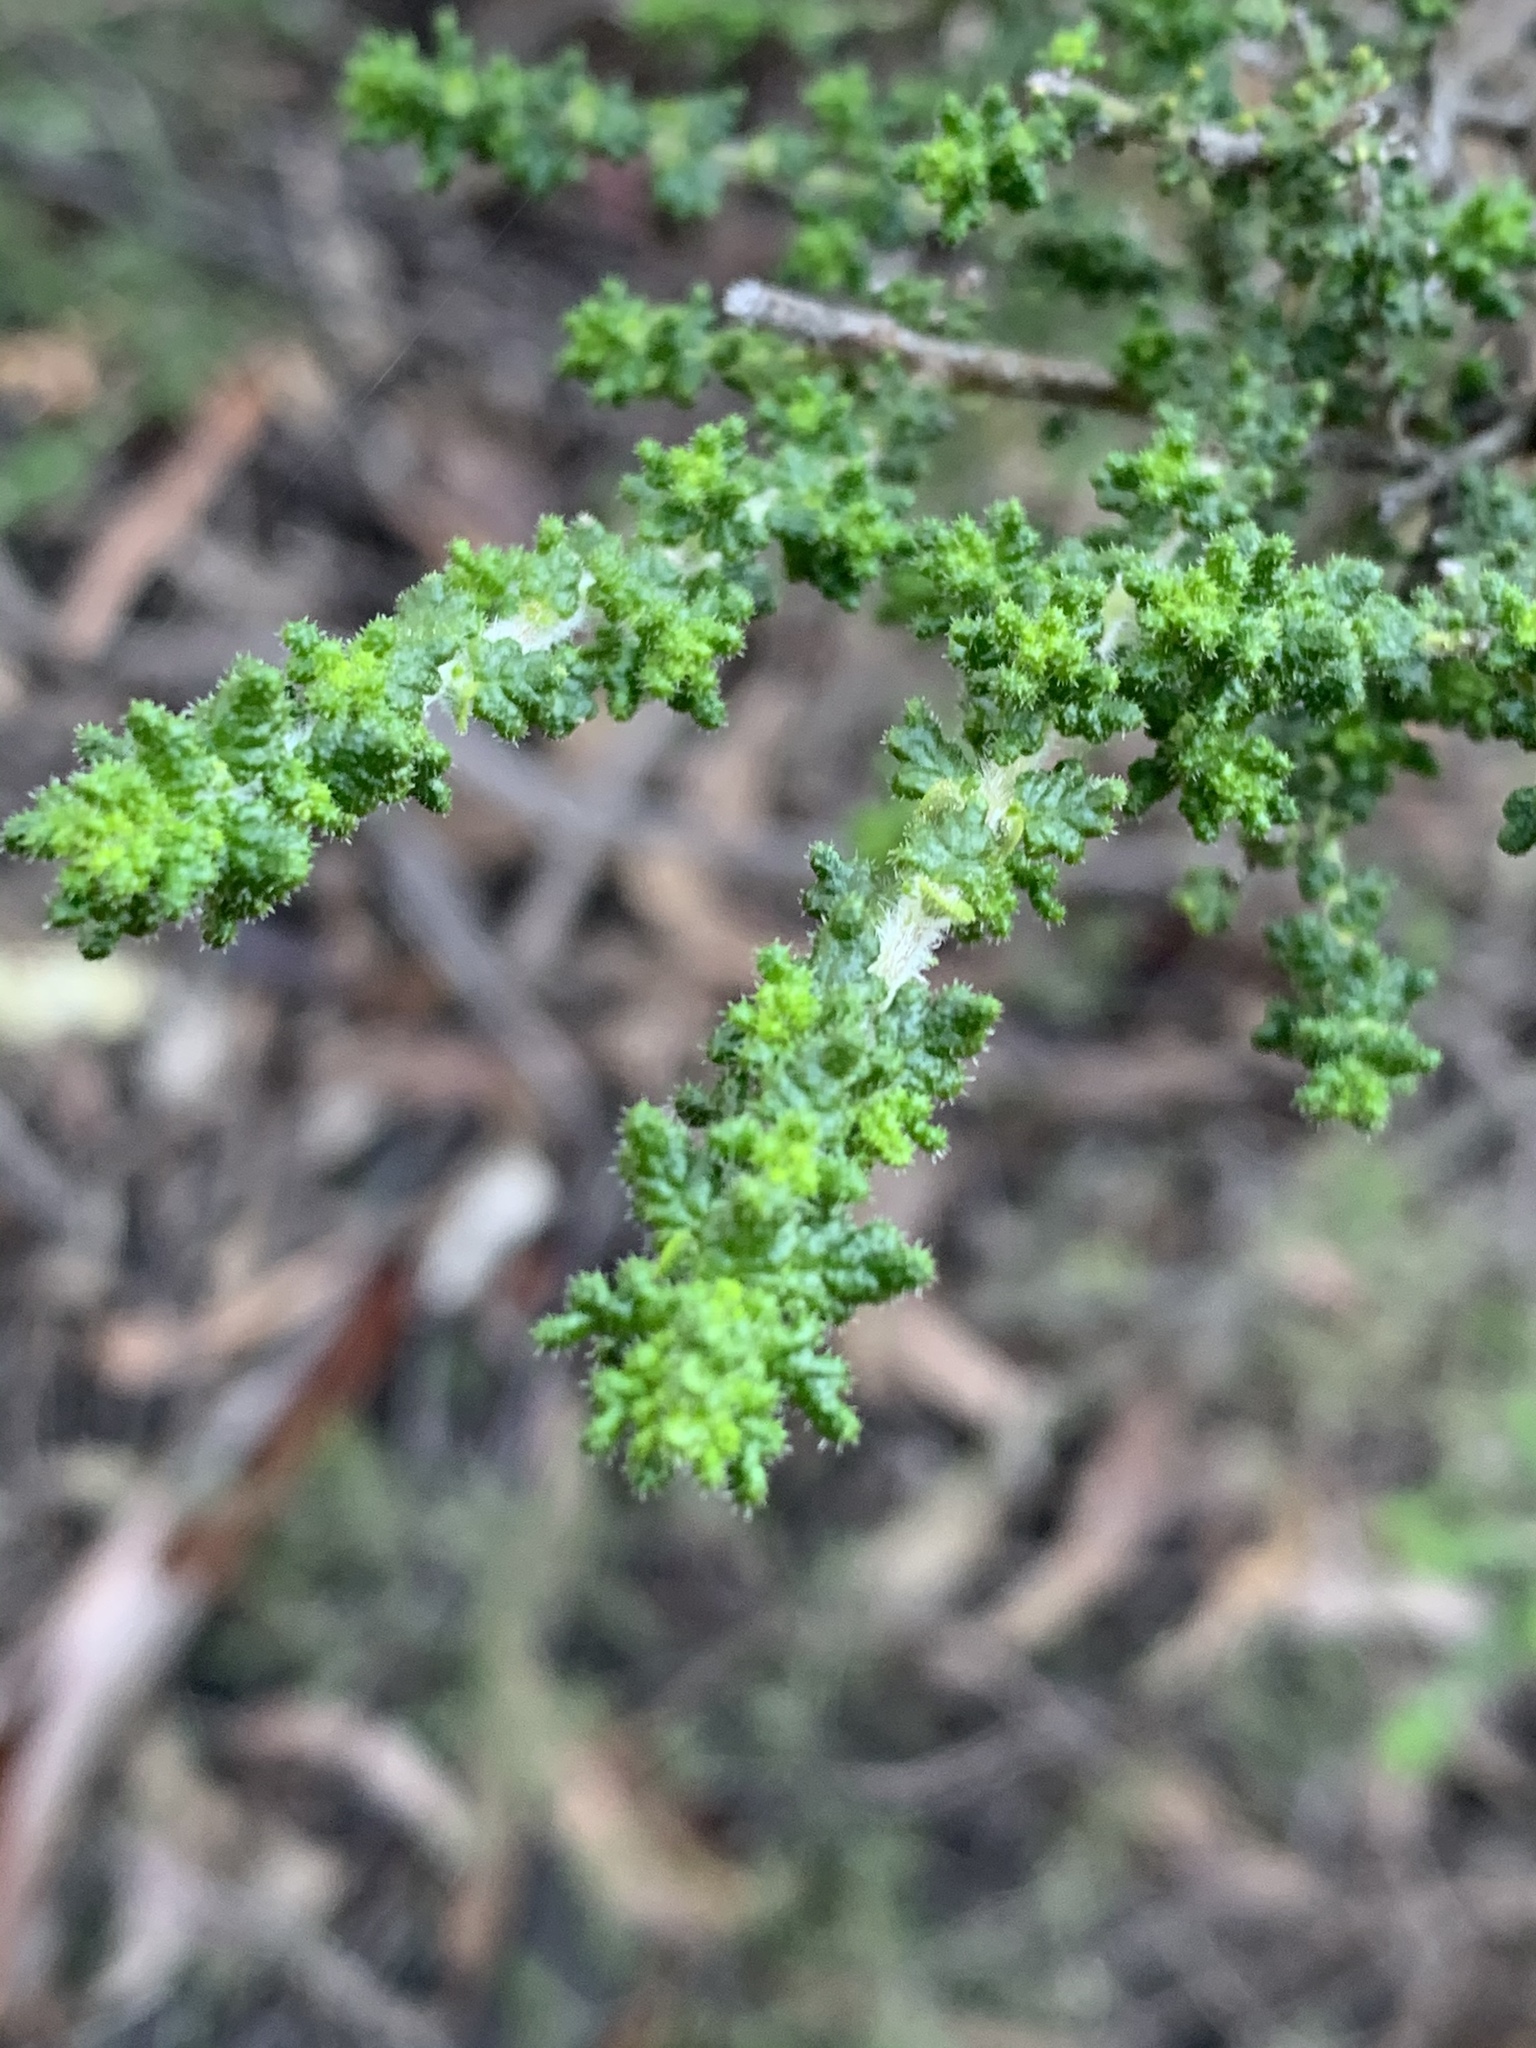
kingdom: Plantae
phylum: Tracheophyta
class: Magnoliopsida
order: Lamiales
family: Lamiaceae
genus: Prostanthera
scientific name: Prostanthera rugosa
